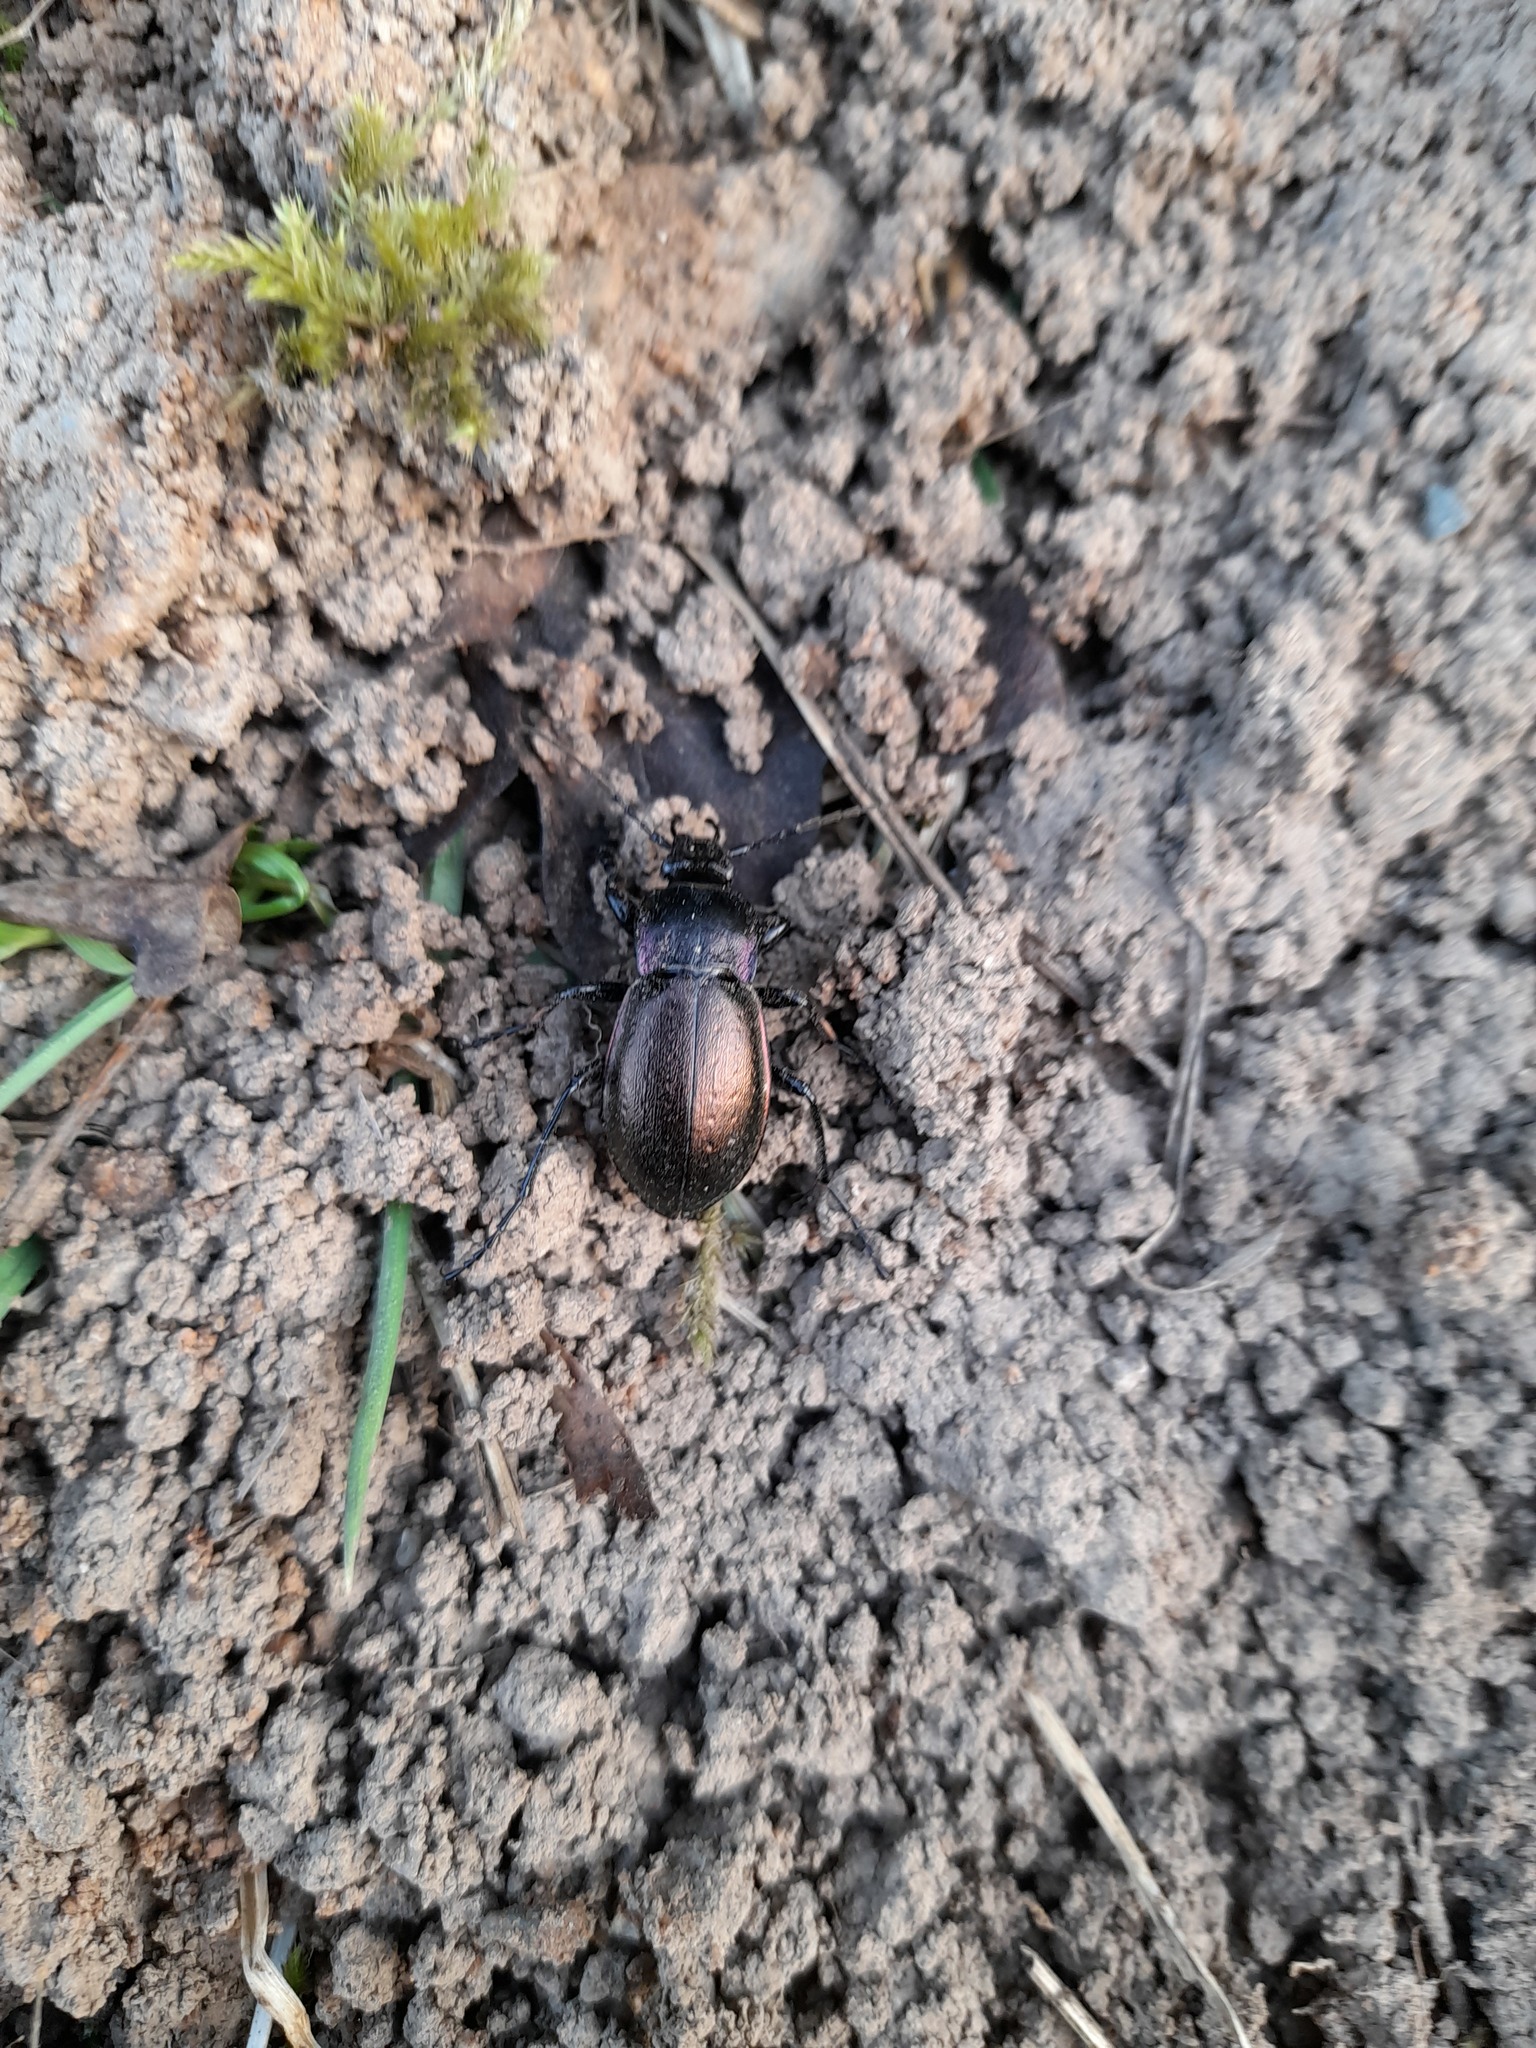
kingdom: Animalia
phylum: Arthropoda
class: Insecta
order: Coleoptera
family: Carabidae
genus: Carabus
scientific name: Carabus nemoralis
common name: European ground beetle
